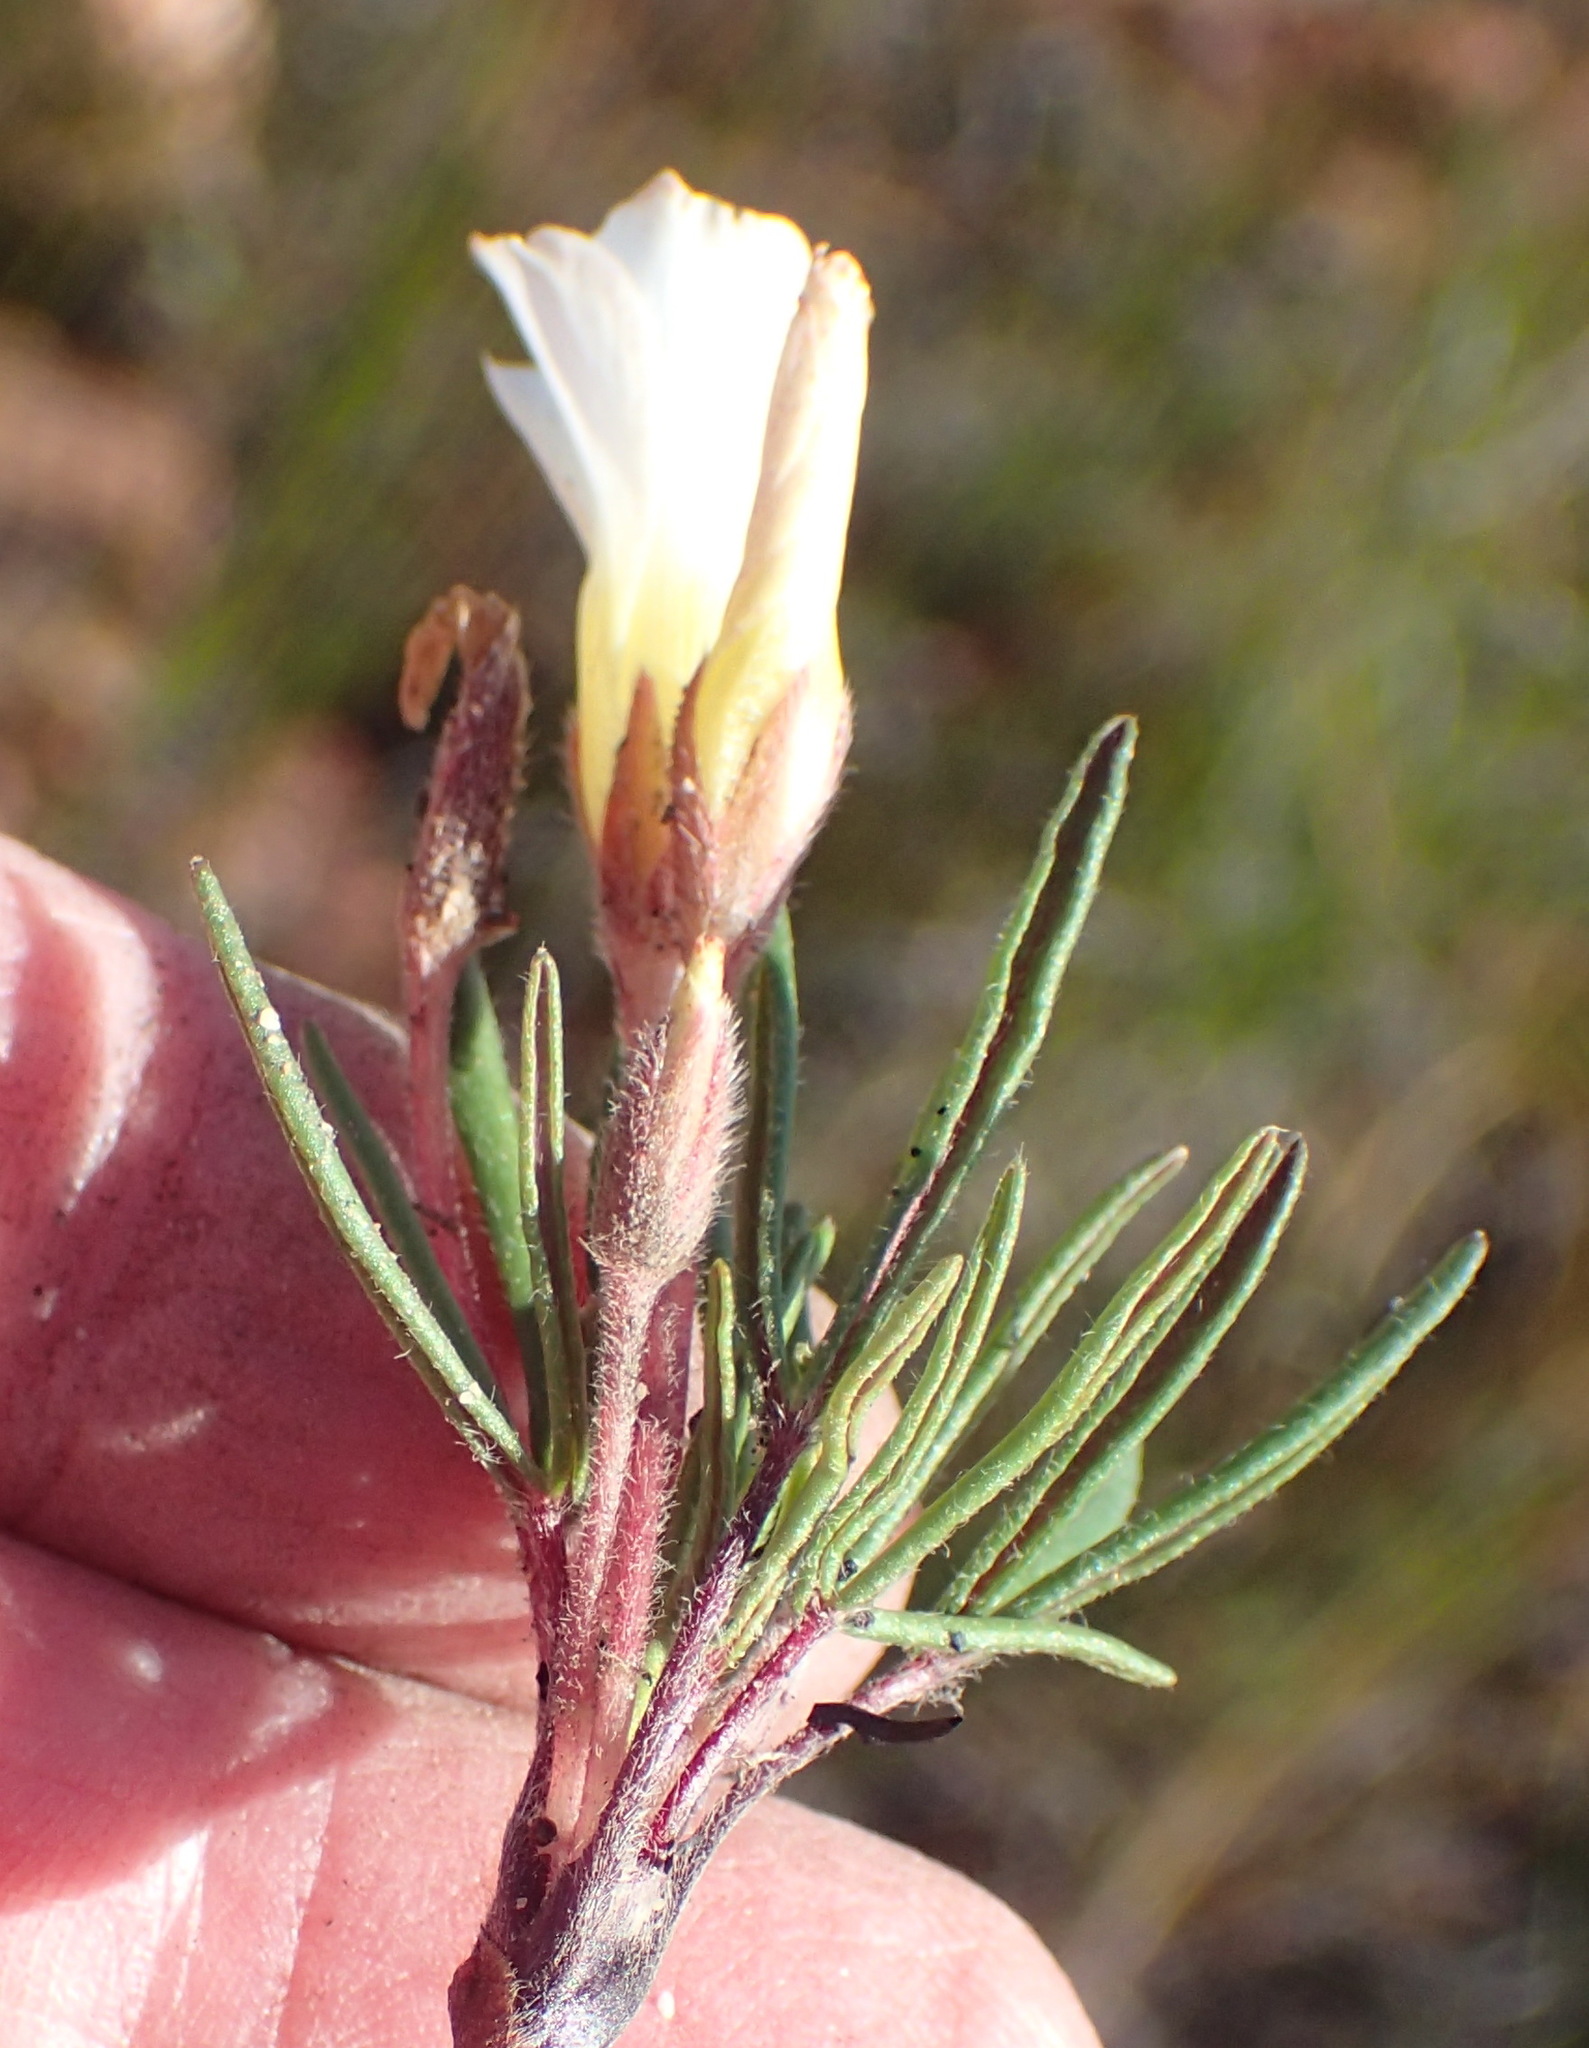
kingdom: Plantae
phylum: Tracheophyta
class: Magnoliopsida
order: Oxalidales
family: Oxalidaceae
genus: Oxalis
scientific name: Oxalis algoensis
